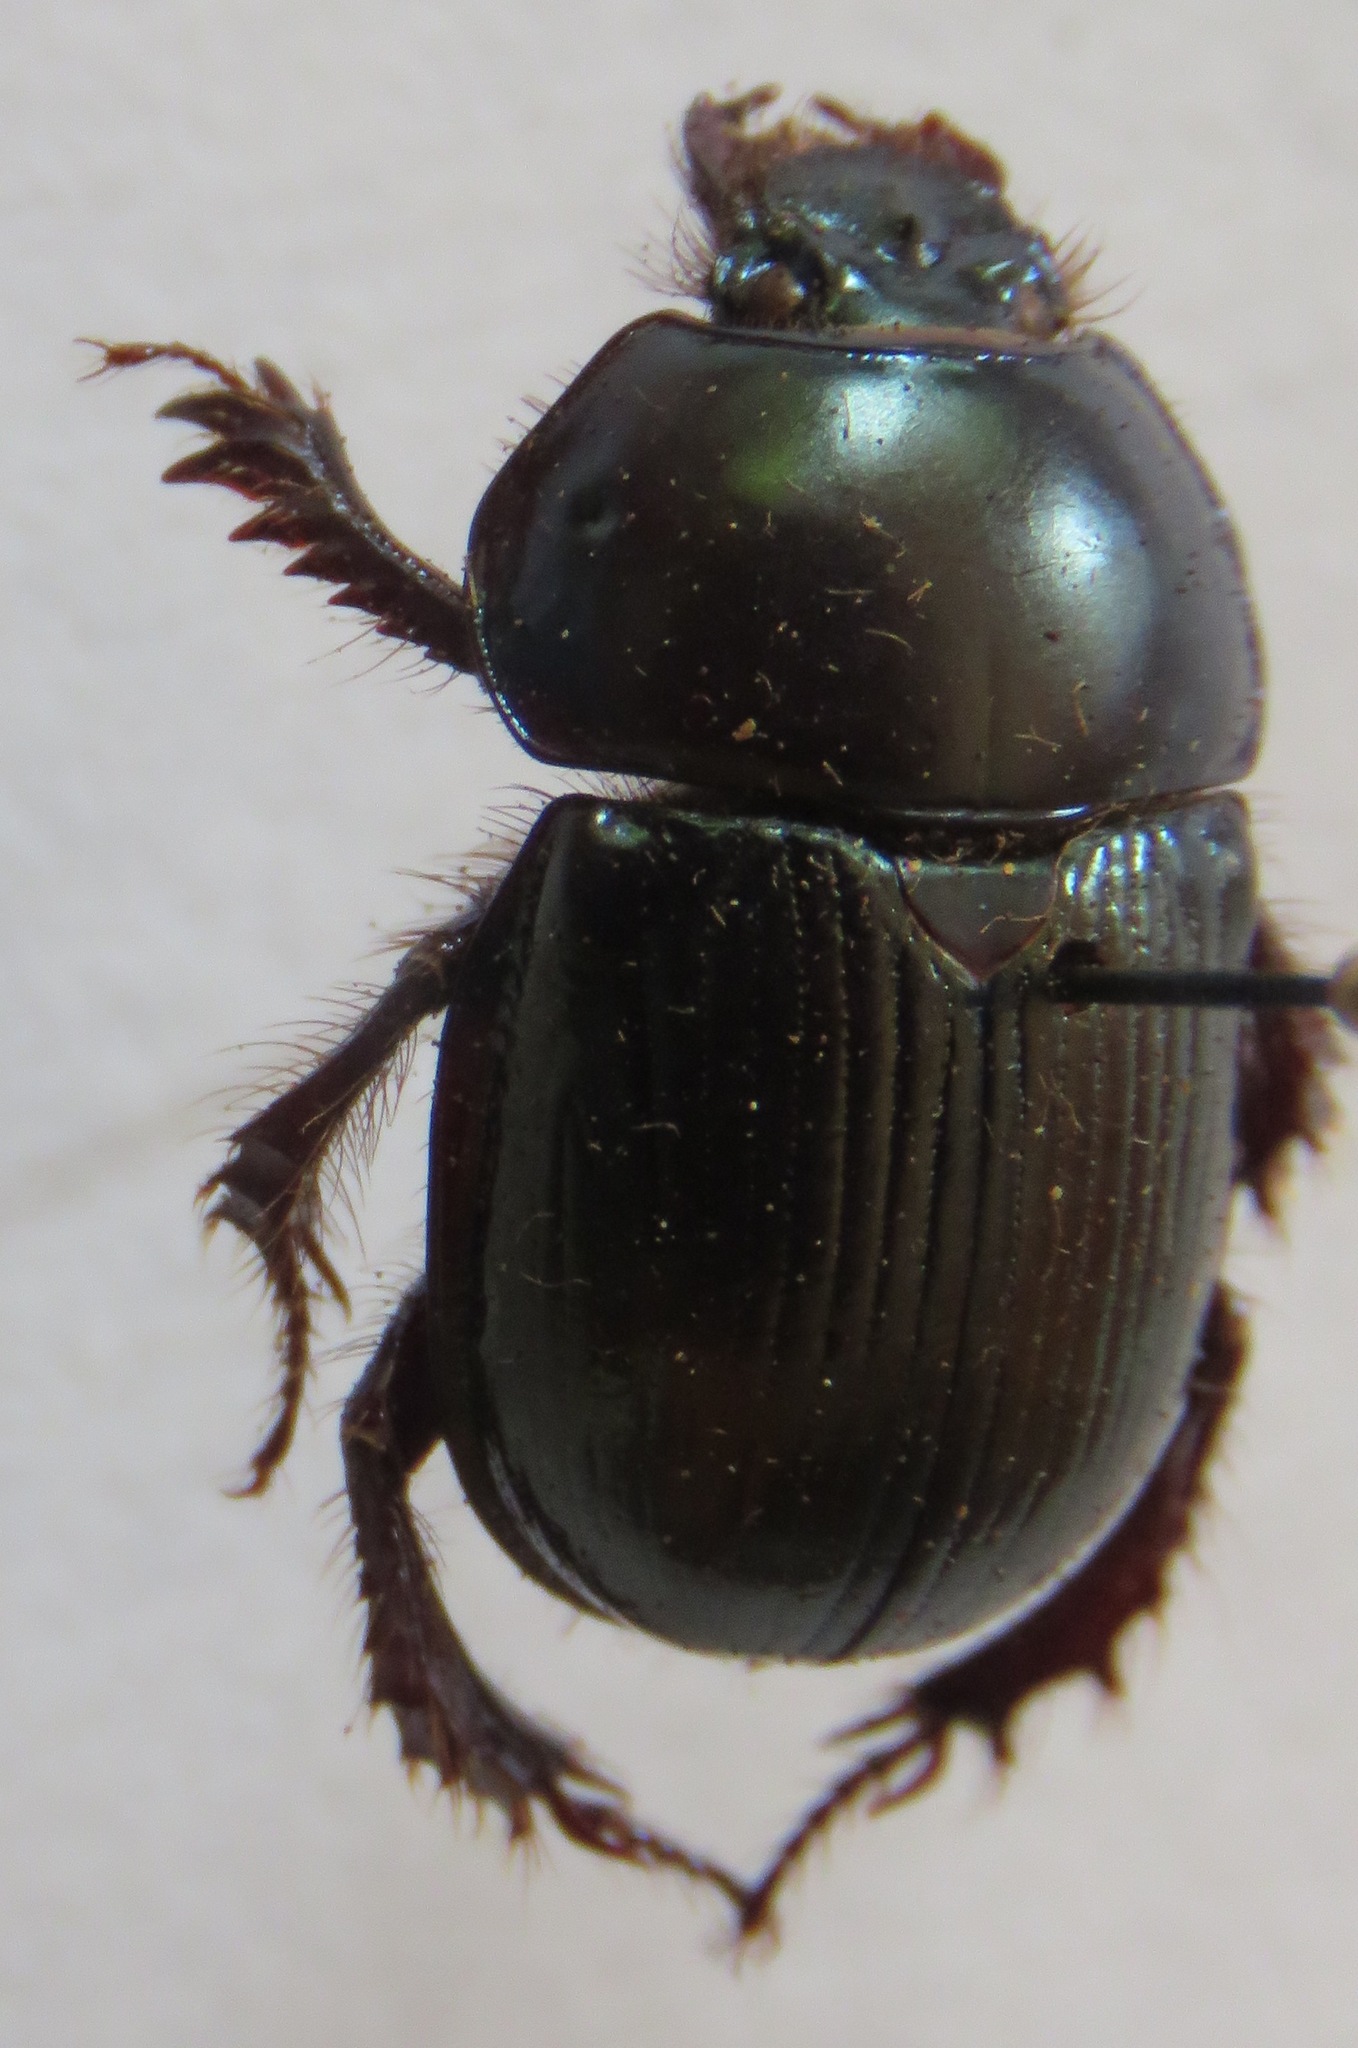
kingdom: Animalia
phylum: Arthropoda
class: Insecta
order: Coleoptera
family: Geotrupidae
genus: Phelotrupes
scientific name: Phelotrupes auratus
